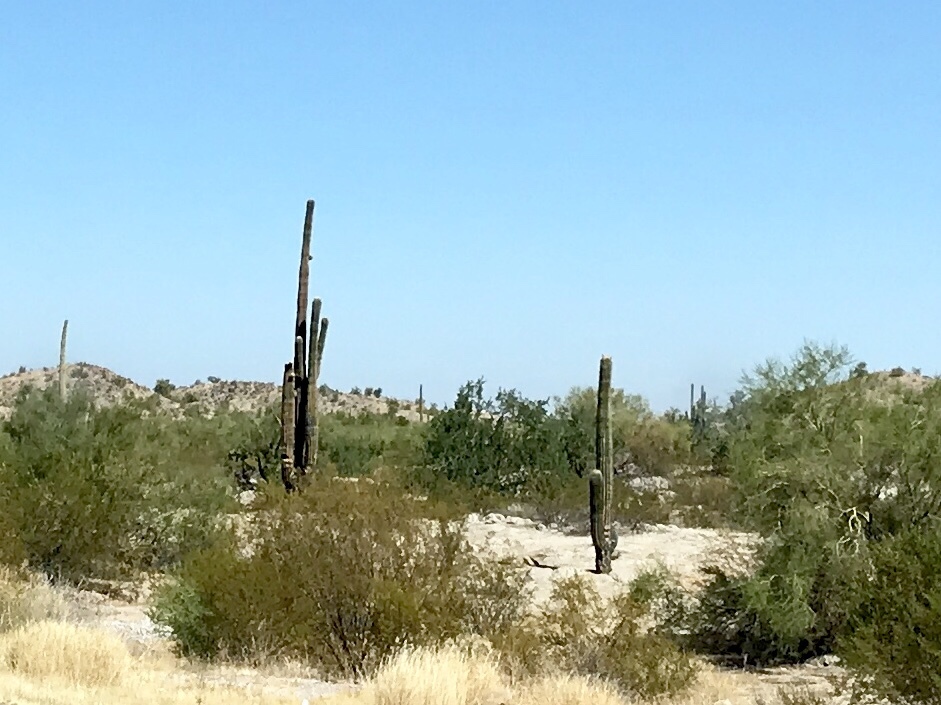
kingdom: Plantae
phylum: Tracheophyta
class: Magnoliopsida
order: Caryophyllales
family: Cactaceae
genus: Carnegiea
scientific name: Carnegiea gigantea
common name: Saguaro
